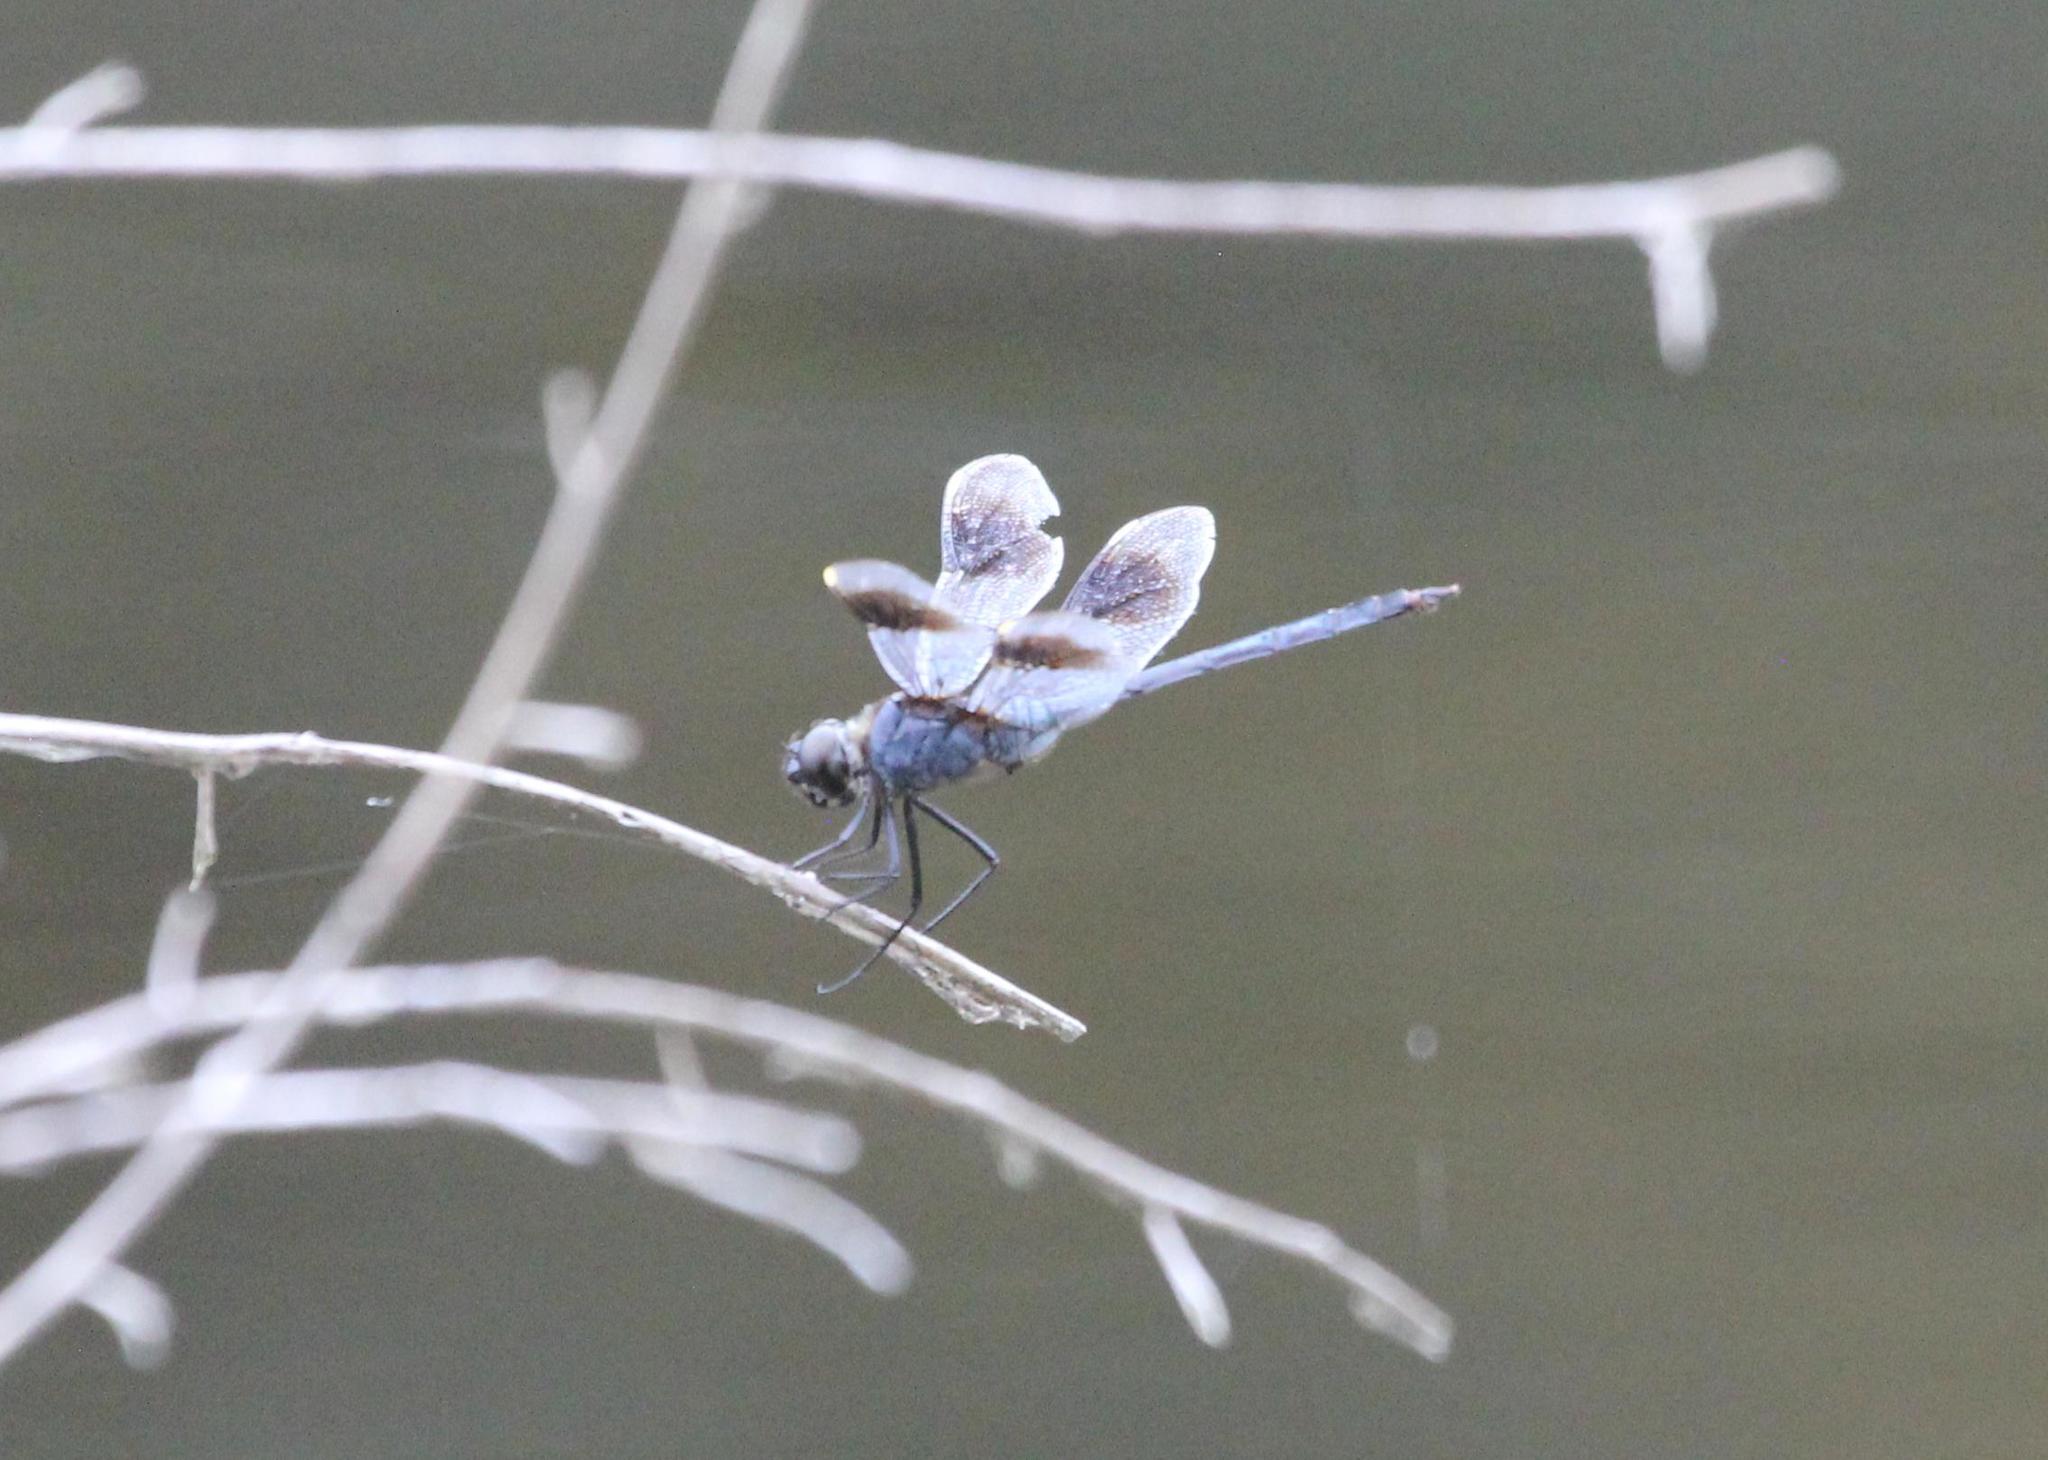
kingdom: Animalia
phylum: Arthropoda
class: Insecta
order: Odonata
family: Libellulidae
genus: Brachymesia
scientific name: Brachymesia gravida
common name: Four-spotted pennant
